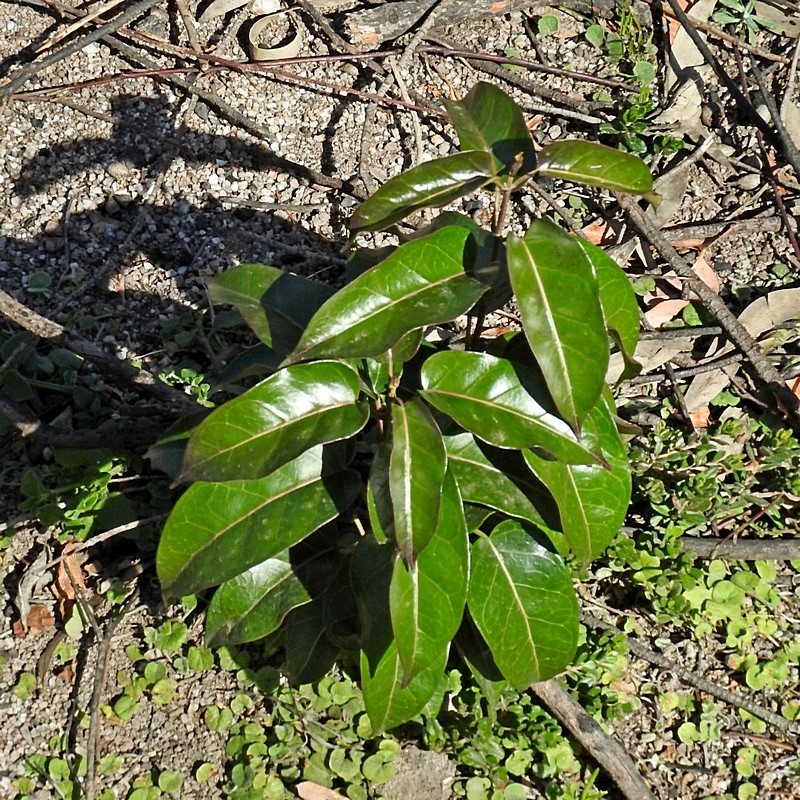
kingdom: Plantae
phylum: Tracheophyta
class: Magnoliopsida
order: Gentianales
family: Apocynaceae
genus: Leichhardtia
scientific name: Leichhardtia rostrata
